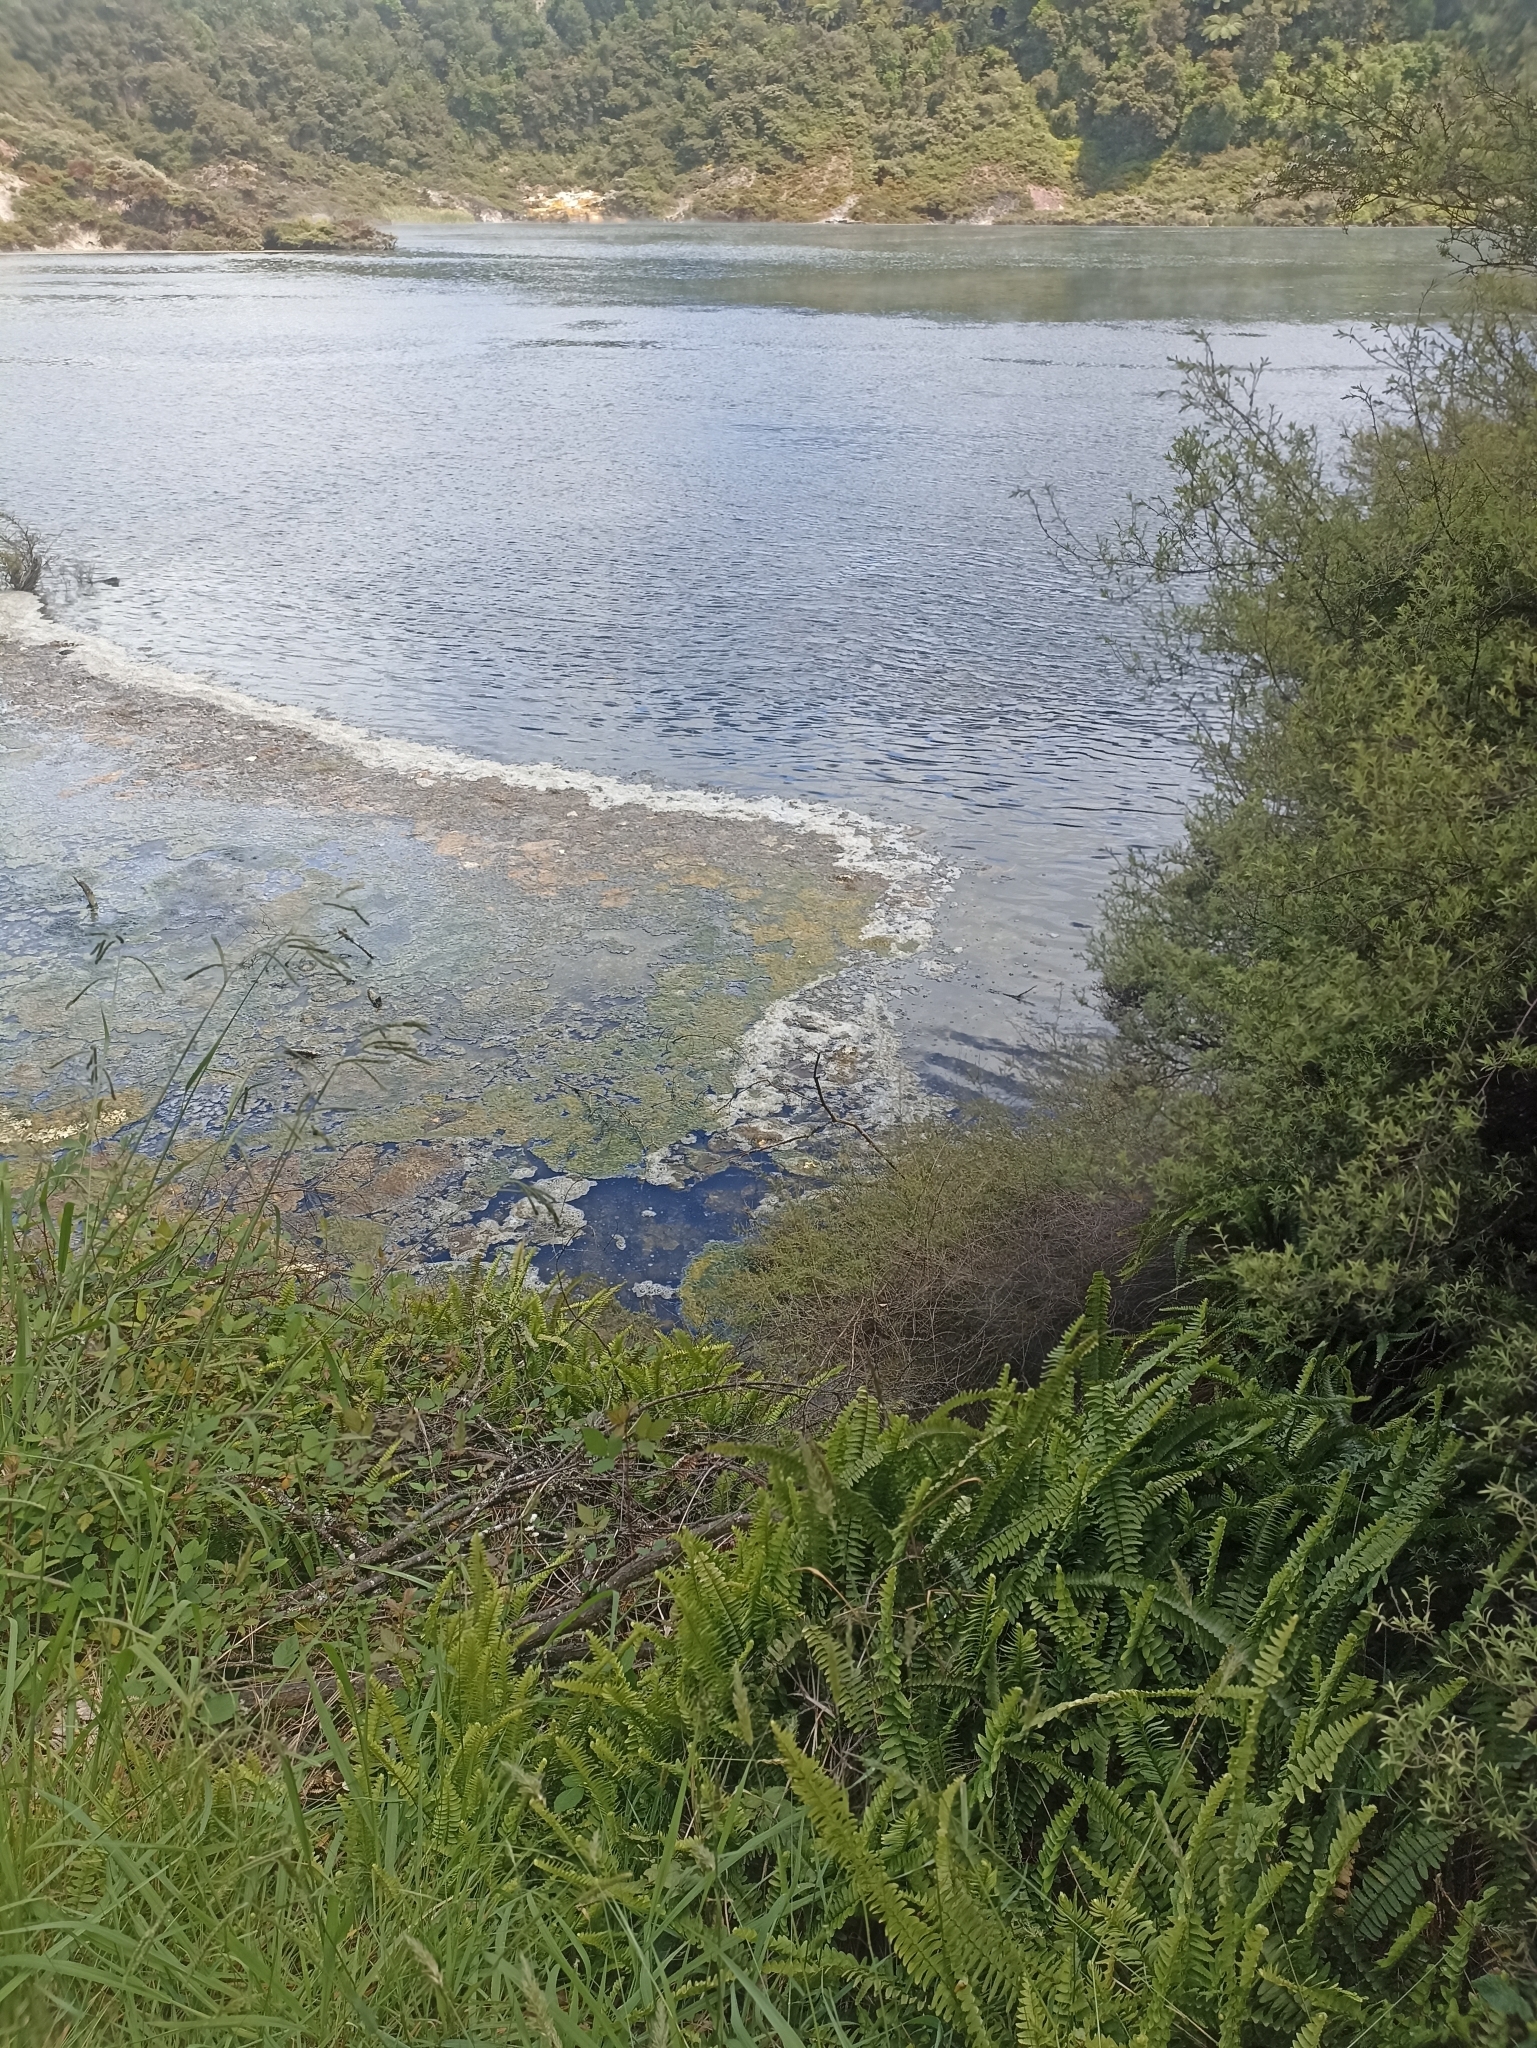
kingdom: Plantae
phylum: Tracheophyta
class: Polypodiopsida
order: Polypodiales
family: Nephrolepidaceae
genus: Nephrolepis
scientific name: Nephrolepis flexuosa
